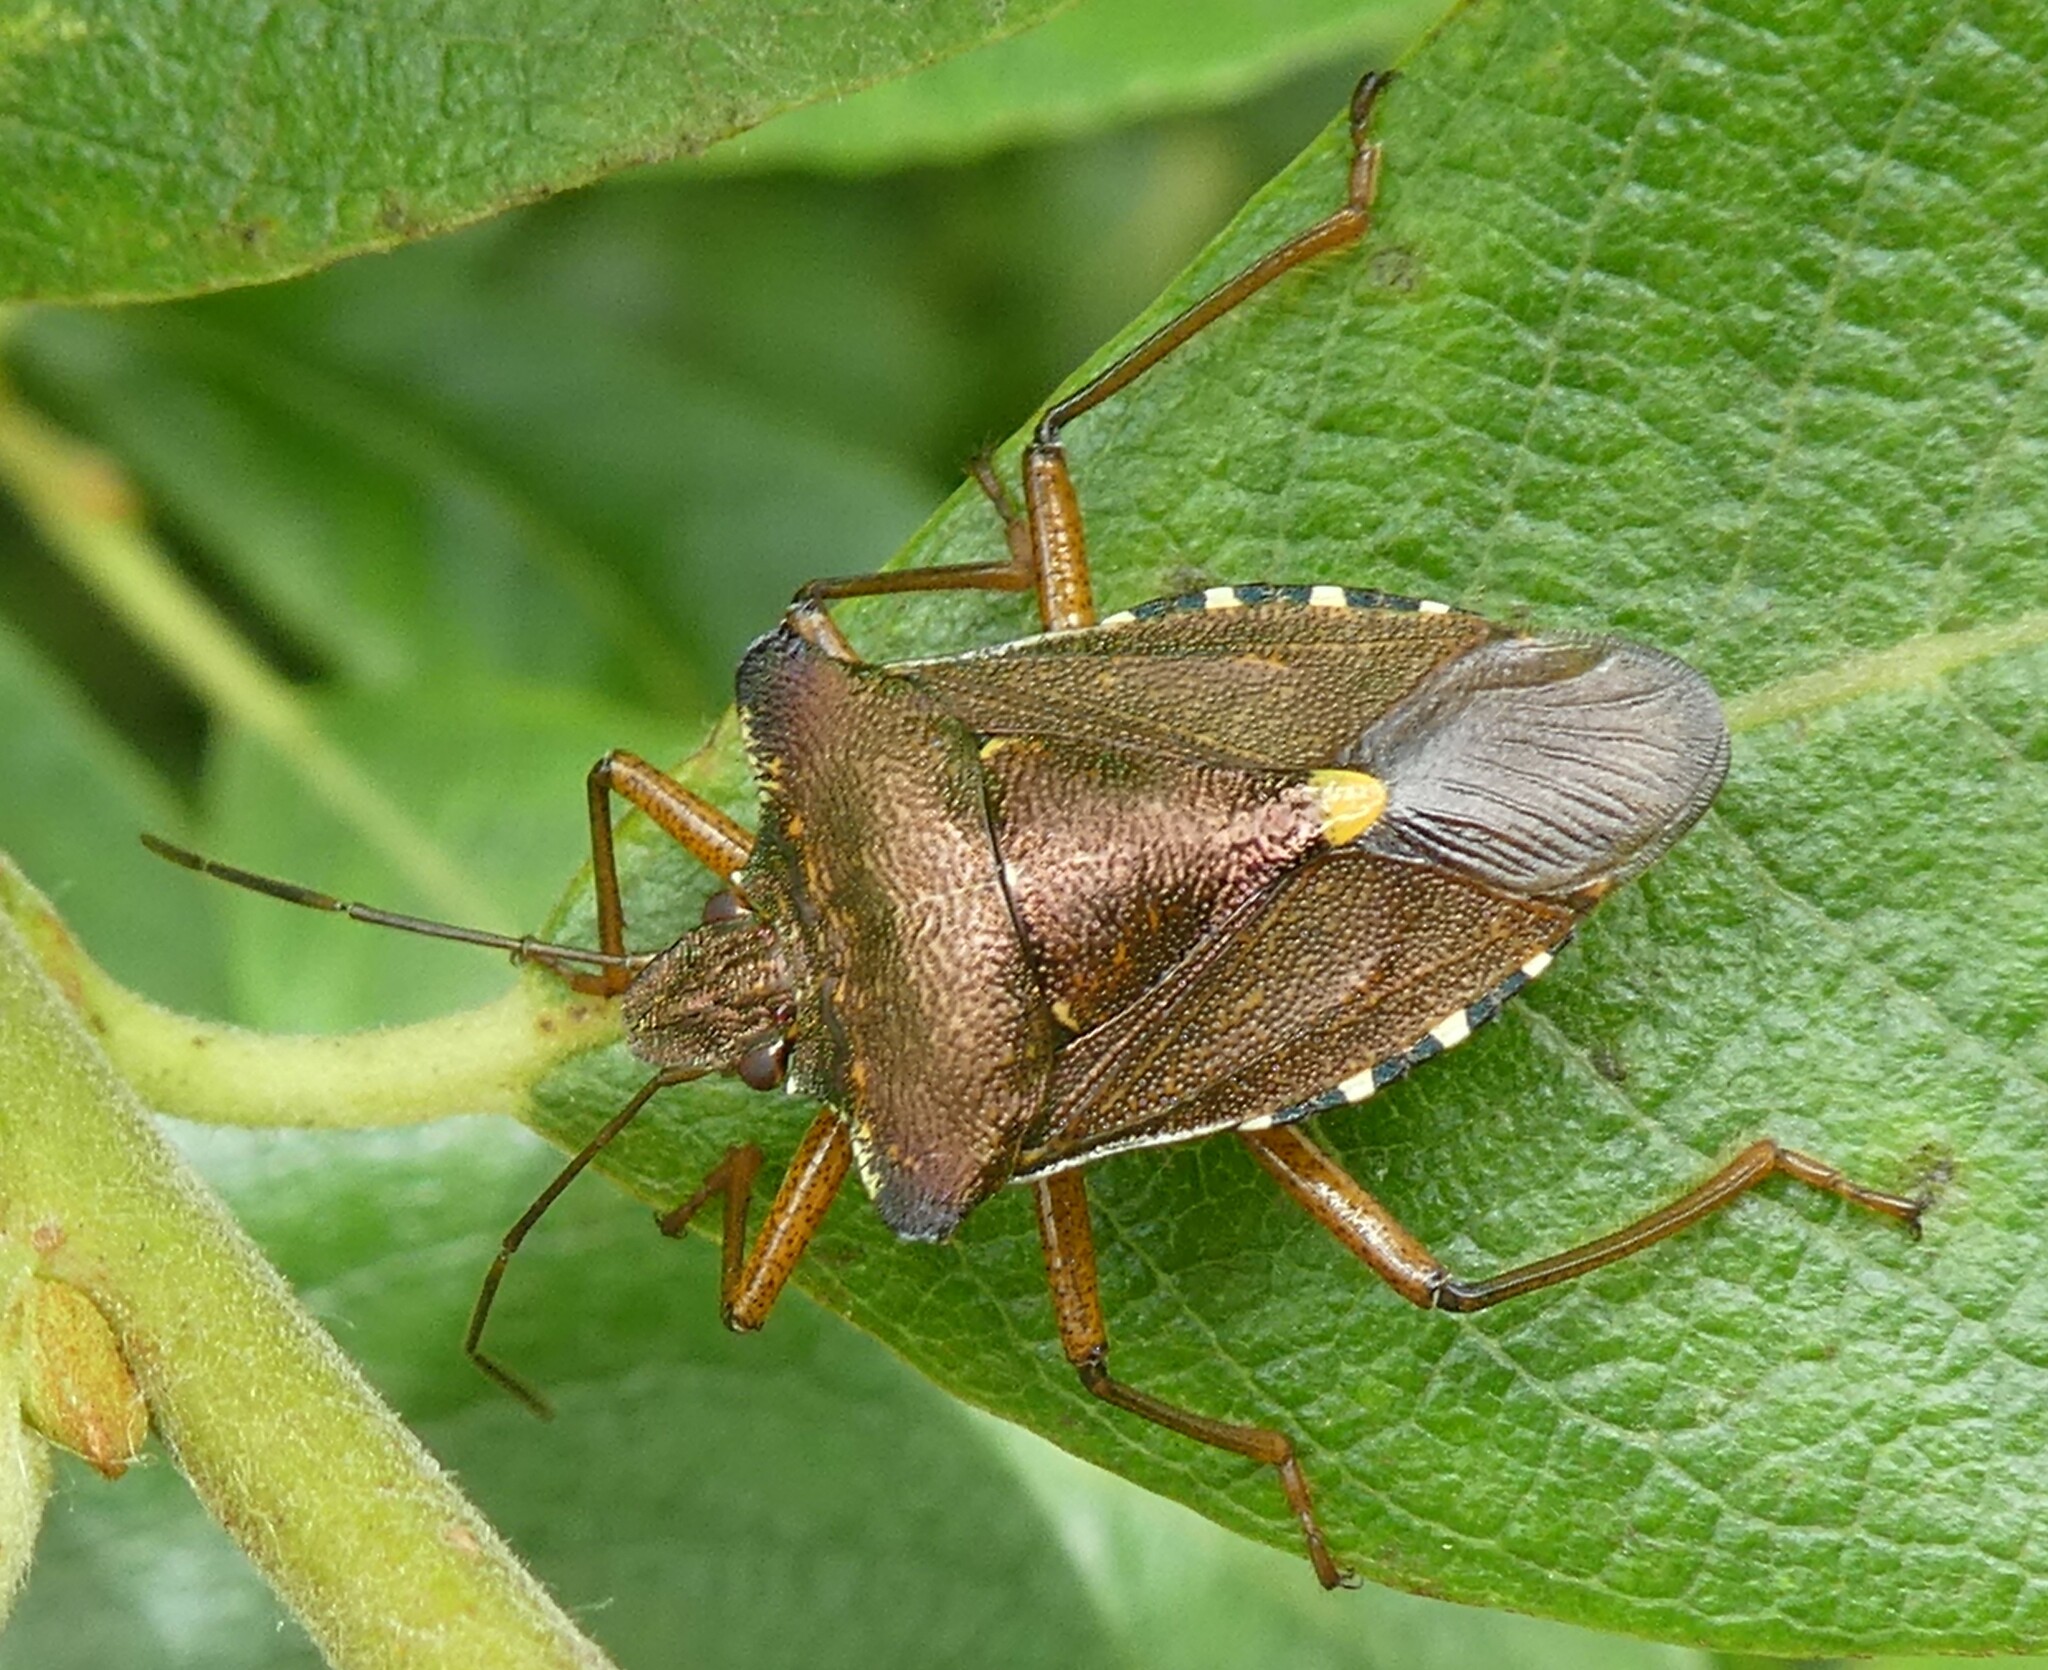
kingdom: Animalia
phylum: Arthropoda
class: Insecta
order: Hemiptera
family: Pentatomidae
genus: Pentatoma
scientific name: Pentatoma rufipes
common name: Forest bug
